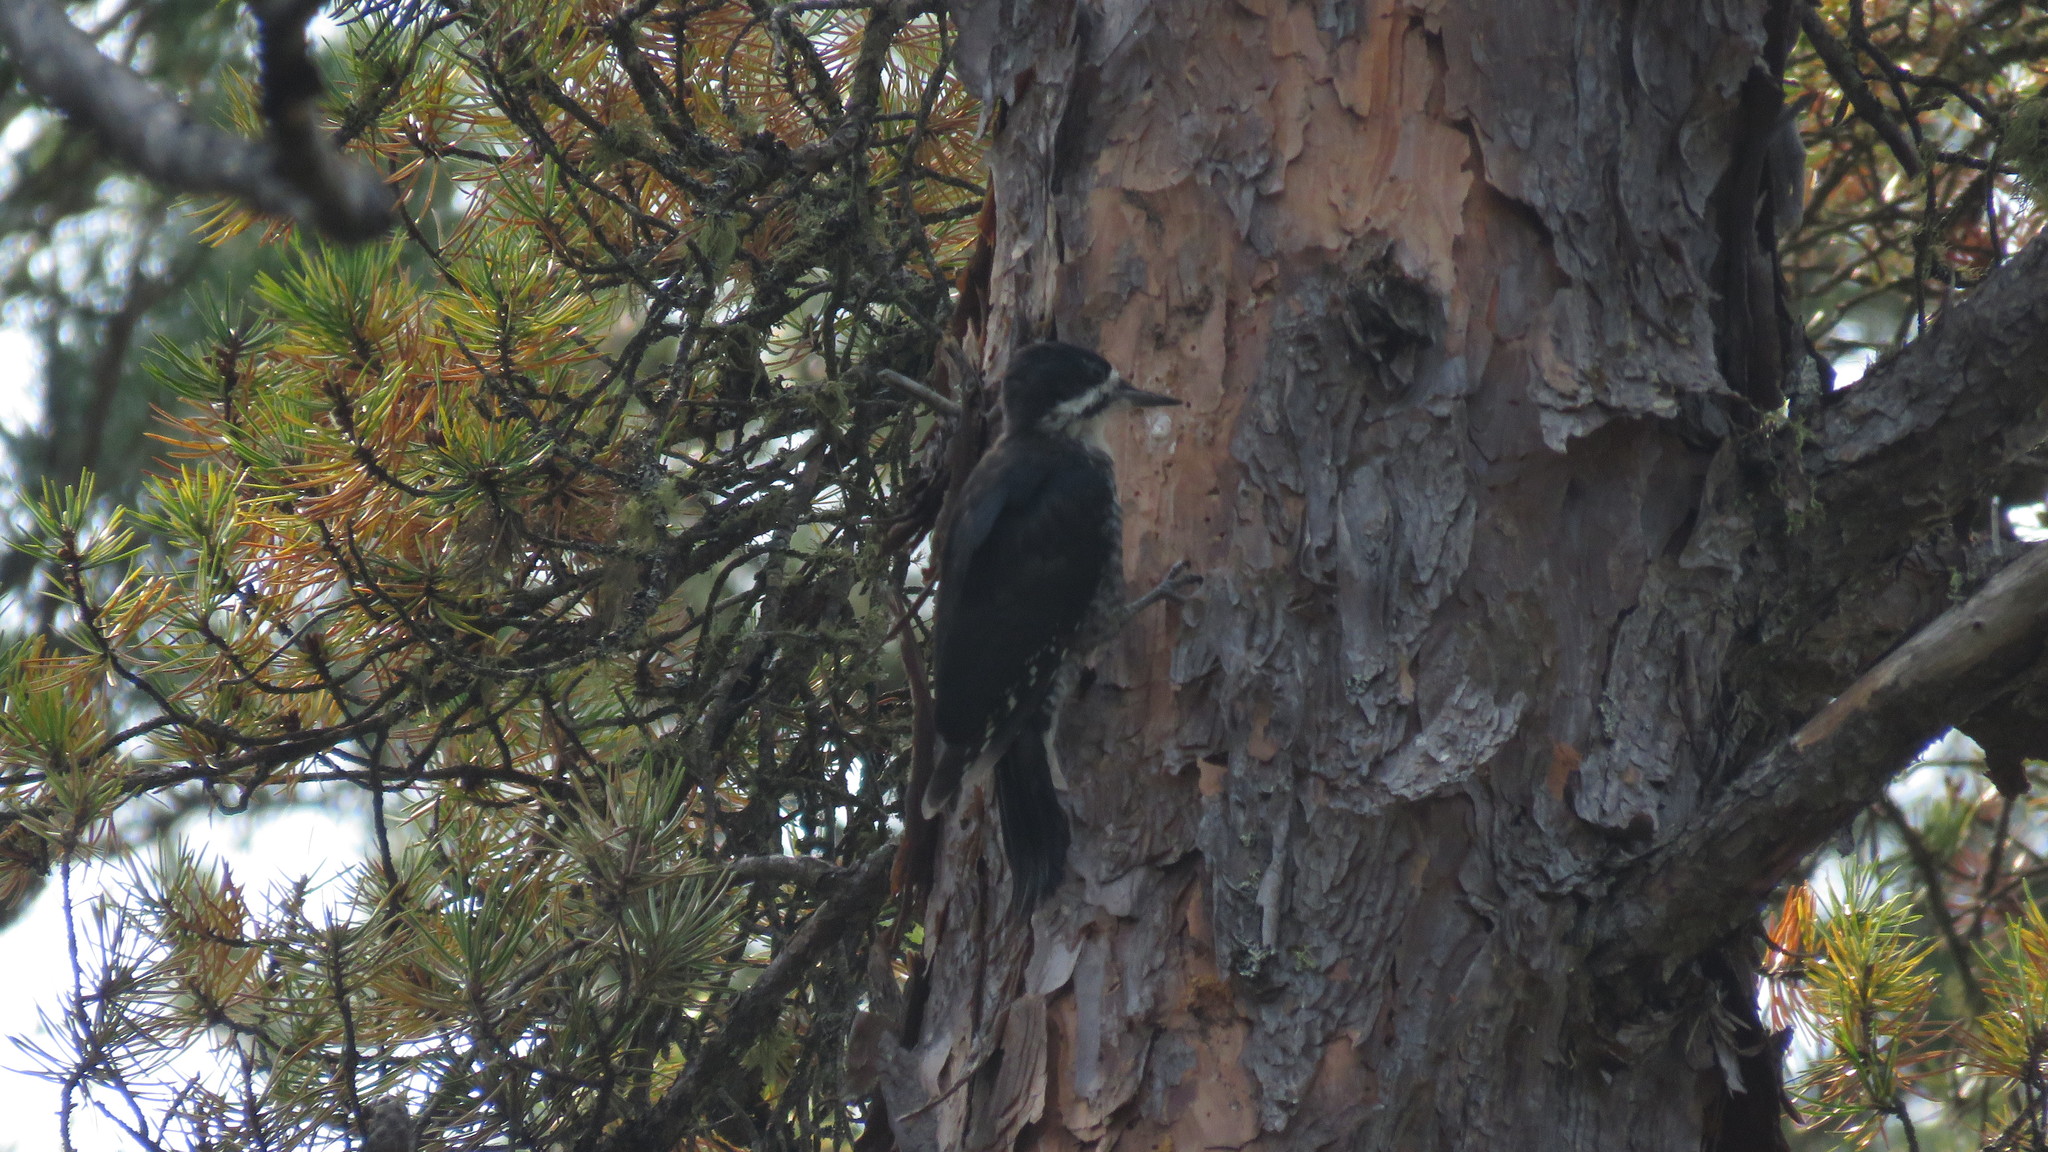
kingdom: Animalia
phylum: Chordata
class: Aves
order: Piciformes
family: Picidae
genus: Picoides
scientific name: Picoides arcticus
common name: Black-backed woodpecker
